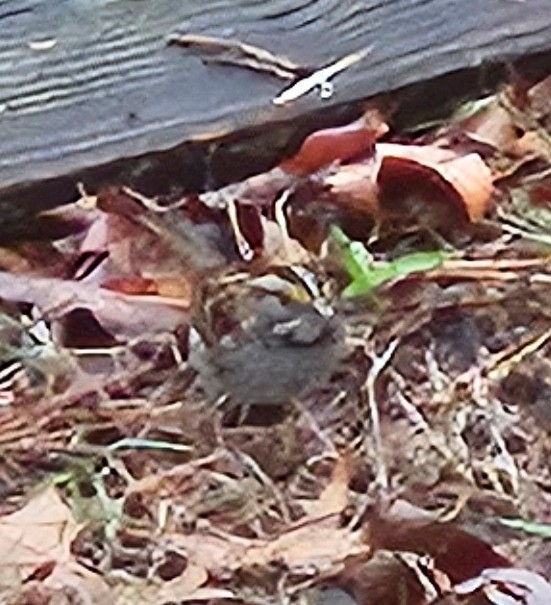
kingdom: Animalia
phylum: Chordata
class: Aves
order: Passeriformes
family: Passerellidae
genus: Zonotrichia
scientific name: Zonotrichia albicollis
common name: White-throated sparrow
